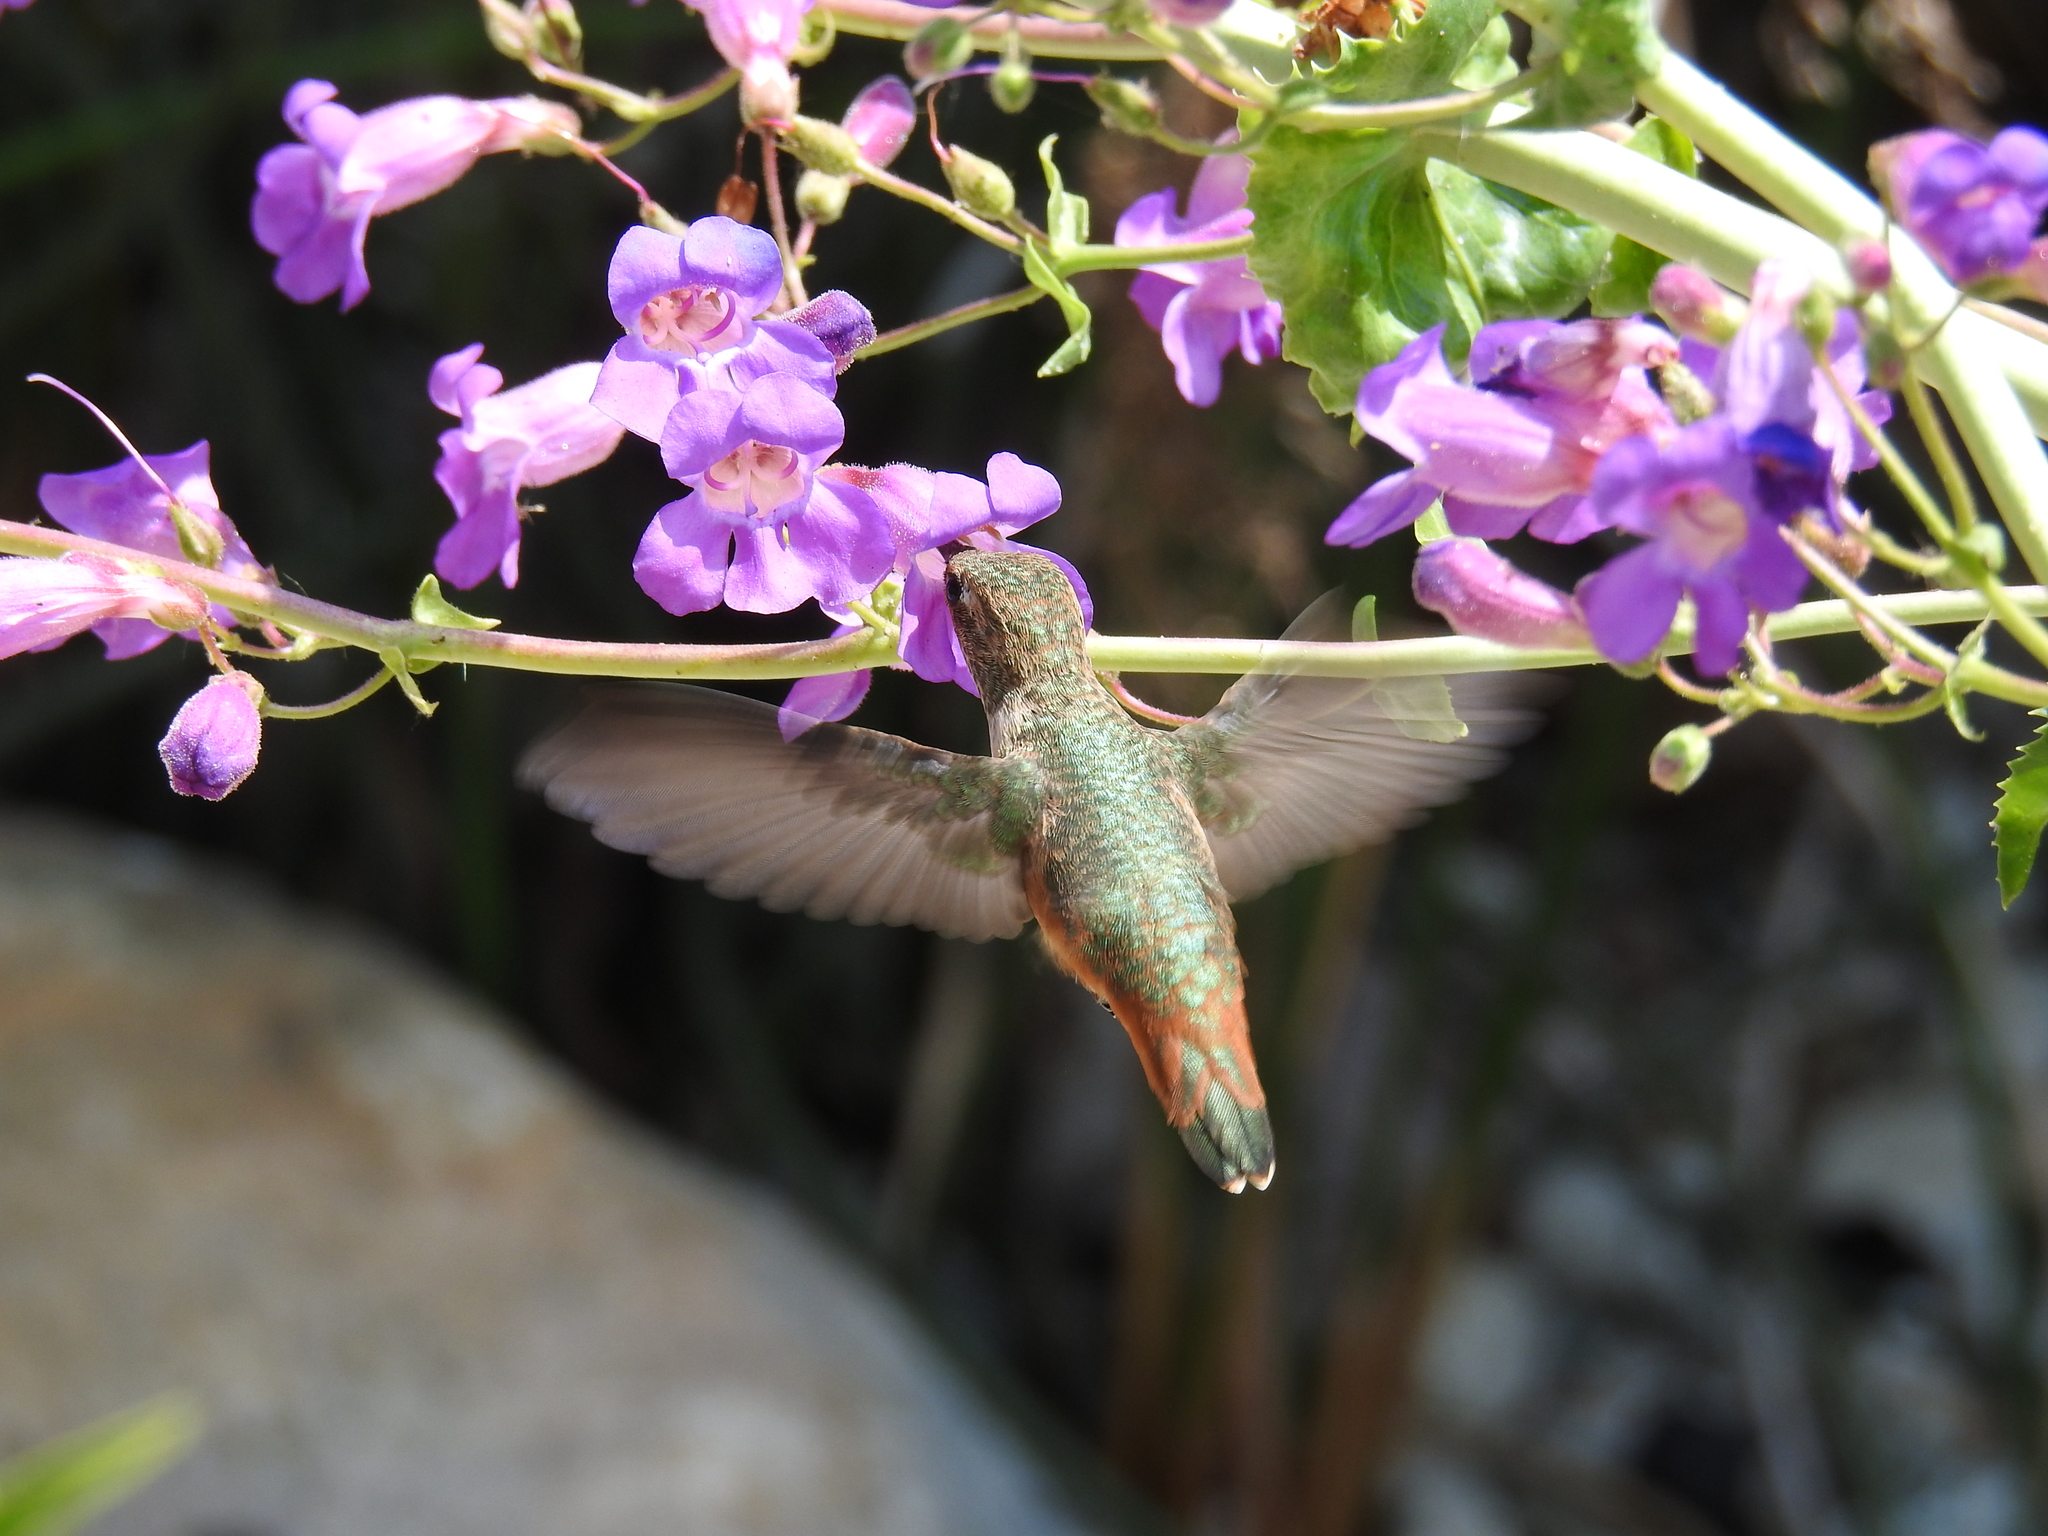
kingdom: Animalia
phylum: Chordata
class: Aves
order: Apodiformes
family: Trochilidae
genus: Selasphorus
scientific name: Selasphorus sasin
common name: Allen's hummingbird
